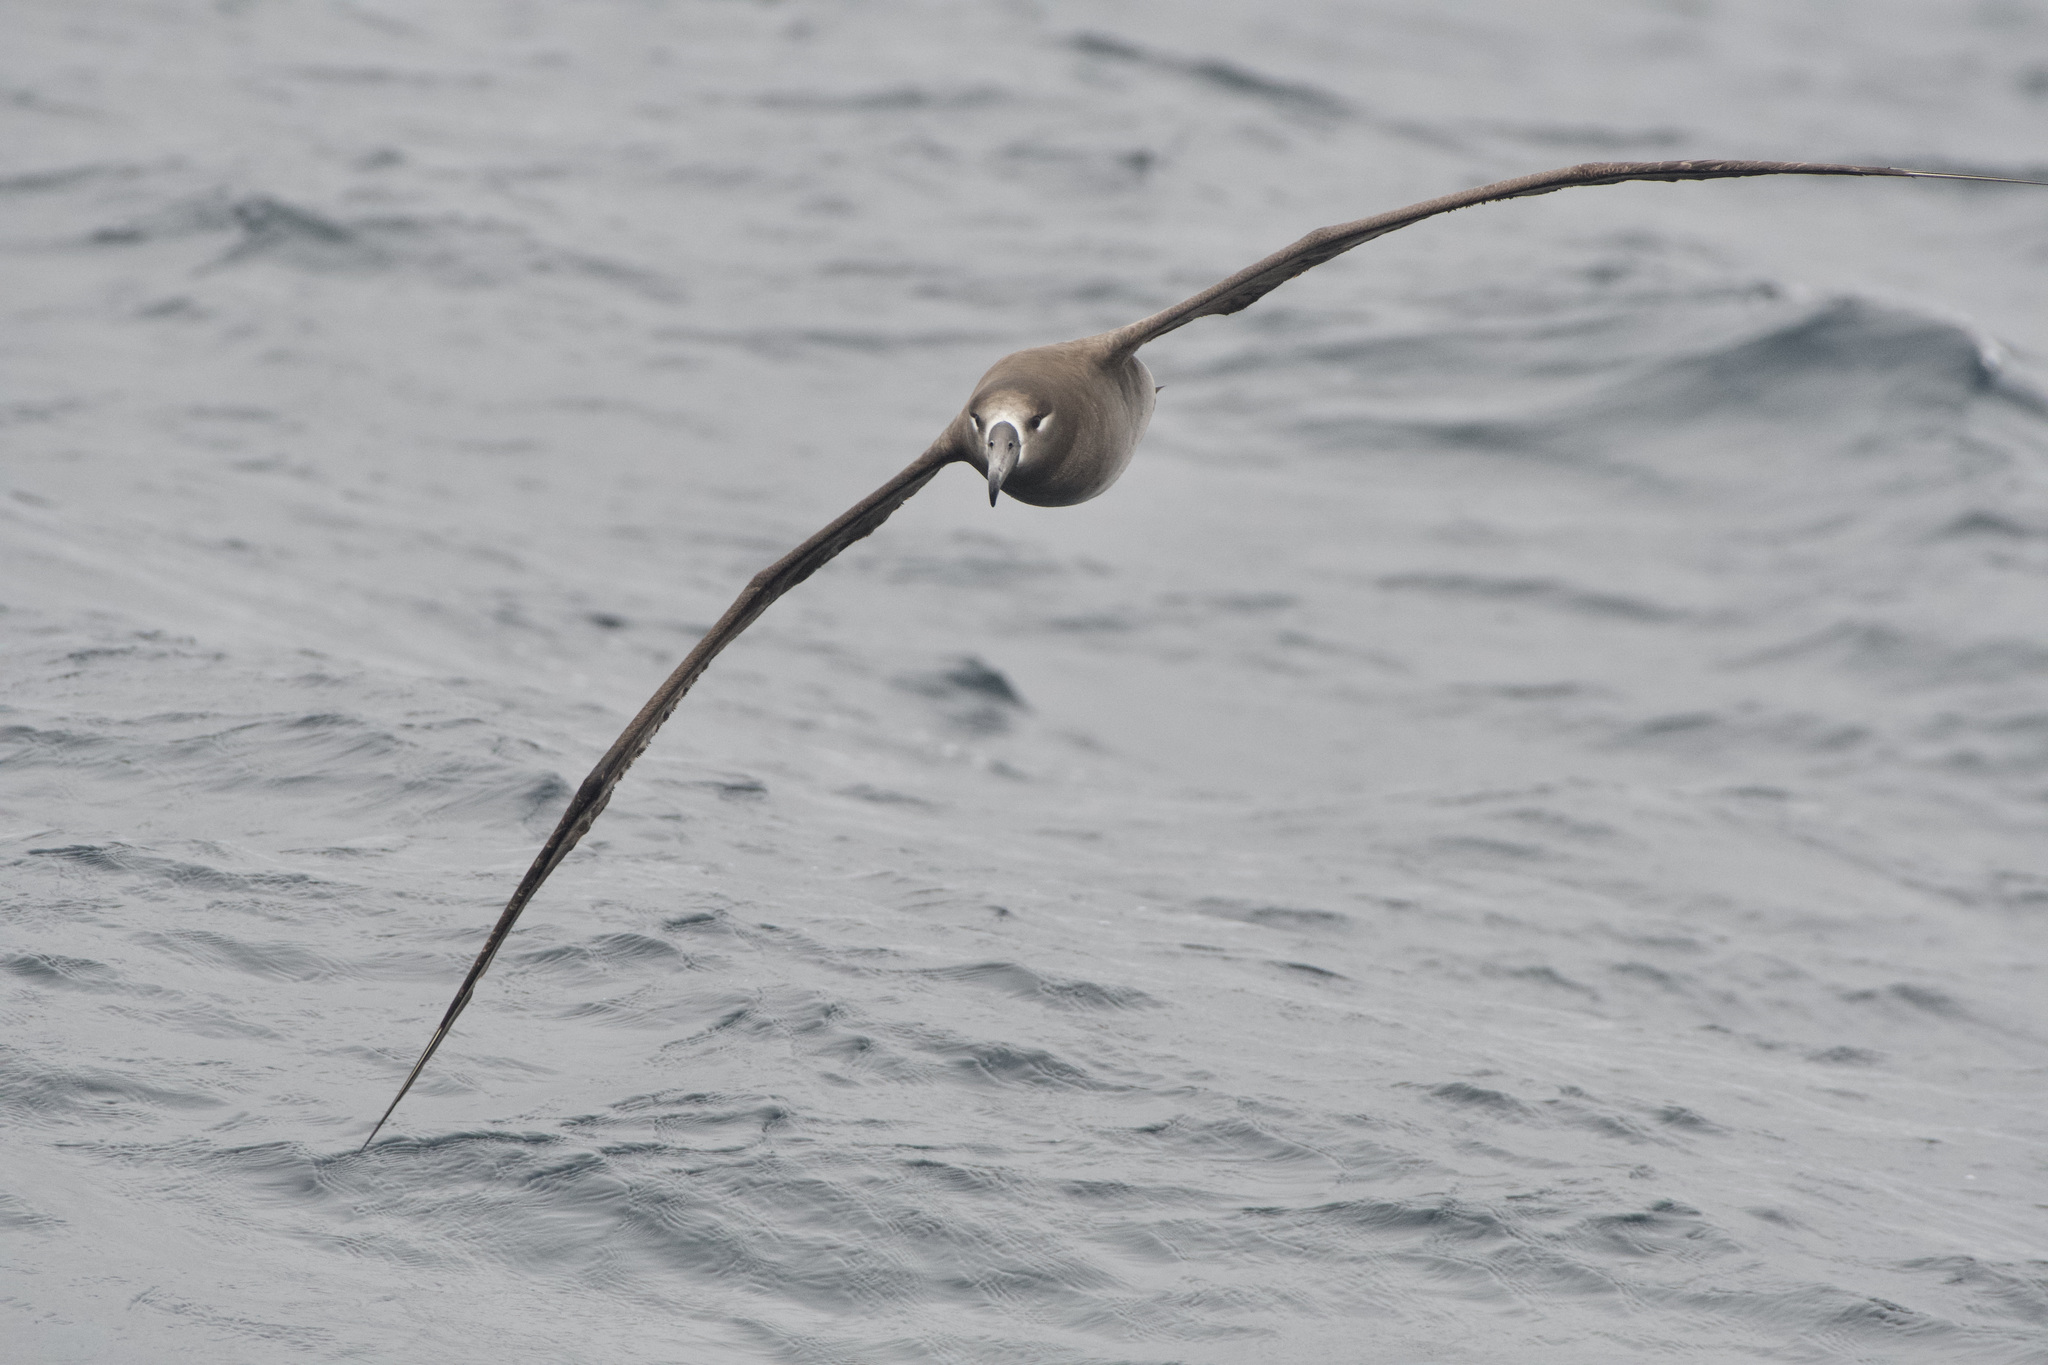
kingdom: Animalia
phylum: Chordata
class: Aves
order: Procellariiformes
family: Diomedeidae
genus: Phoebastria
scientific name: Phoebastria nigripes
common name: Black-footed albatross
